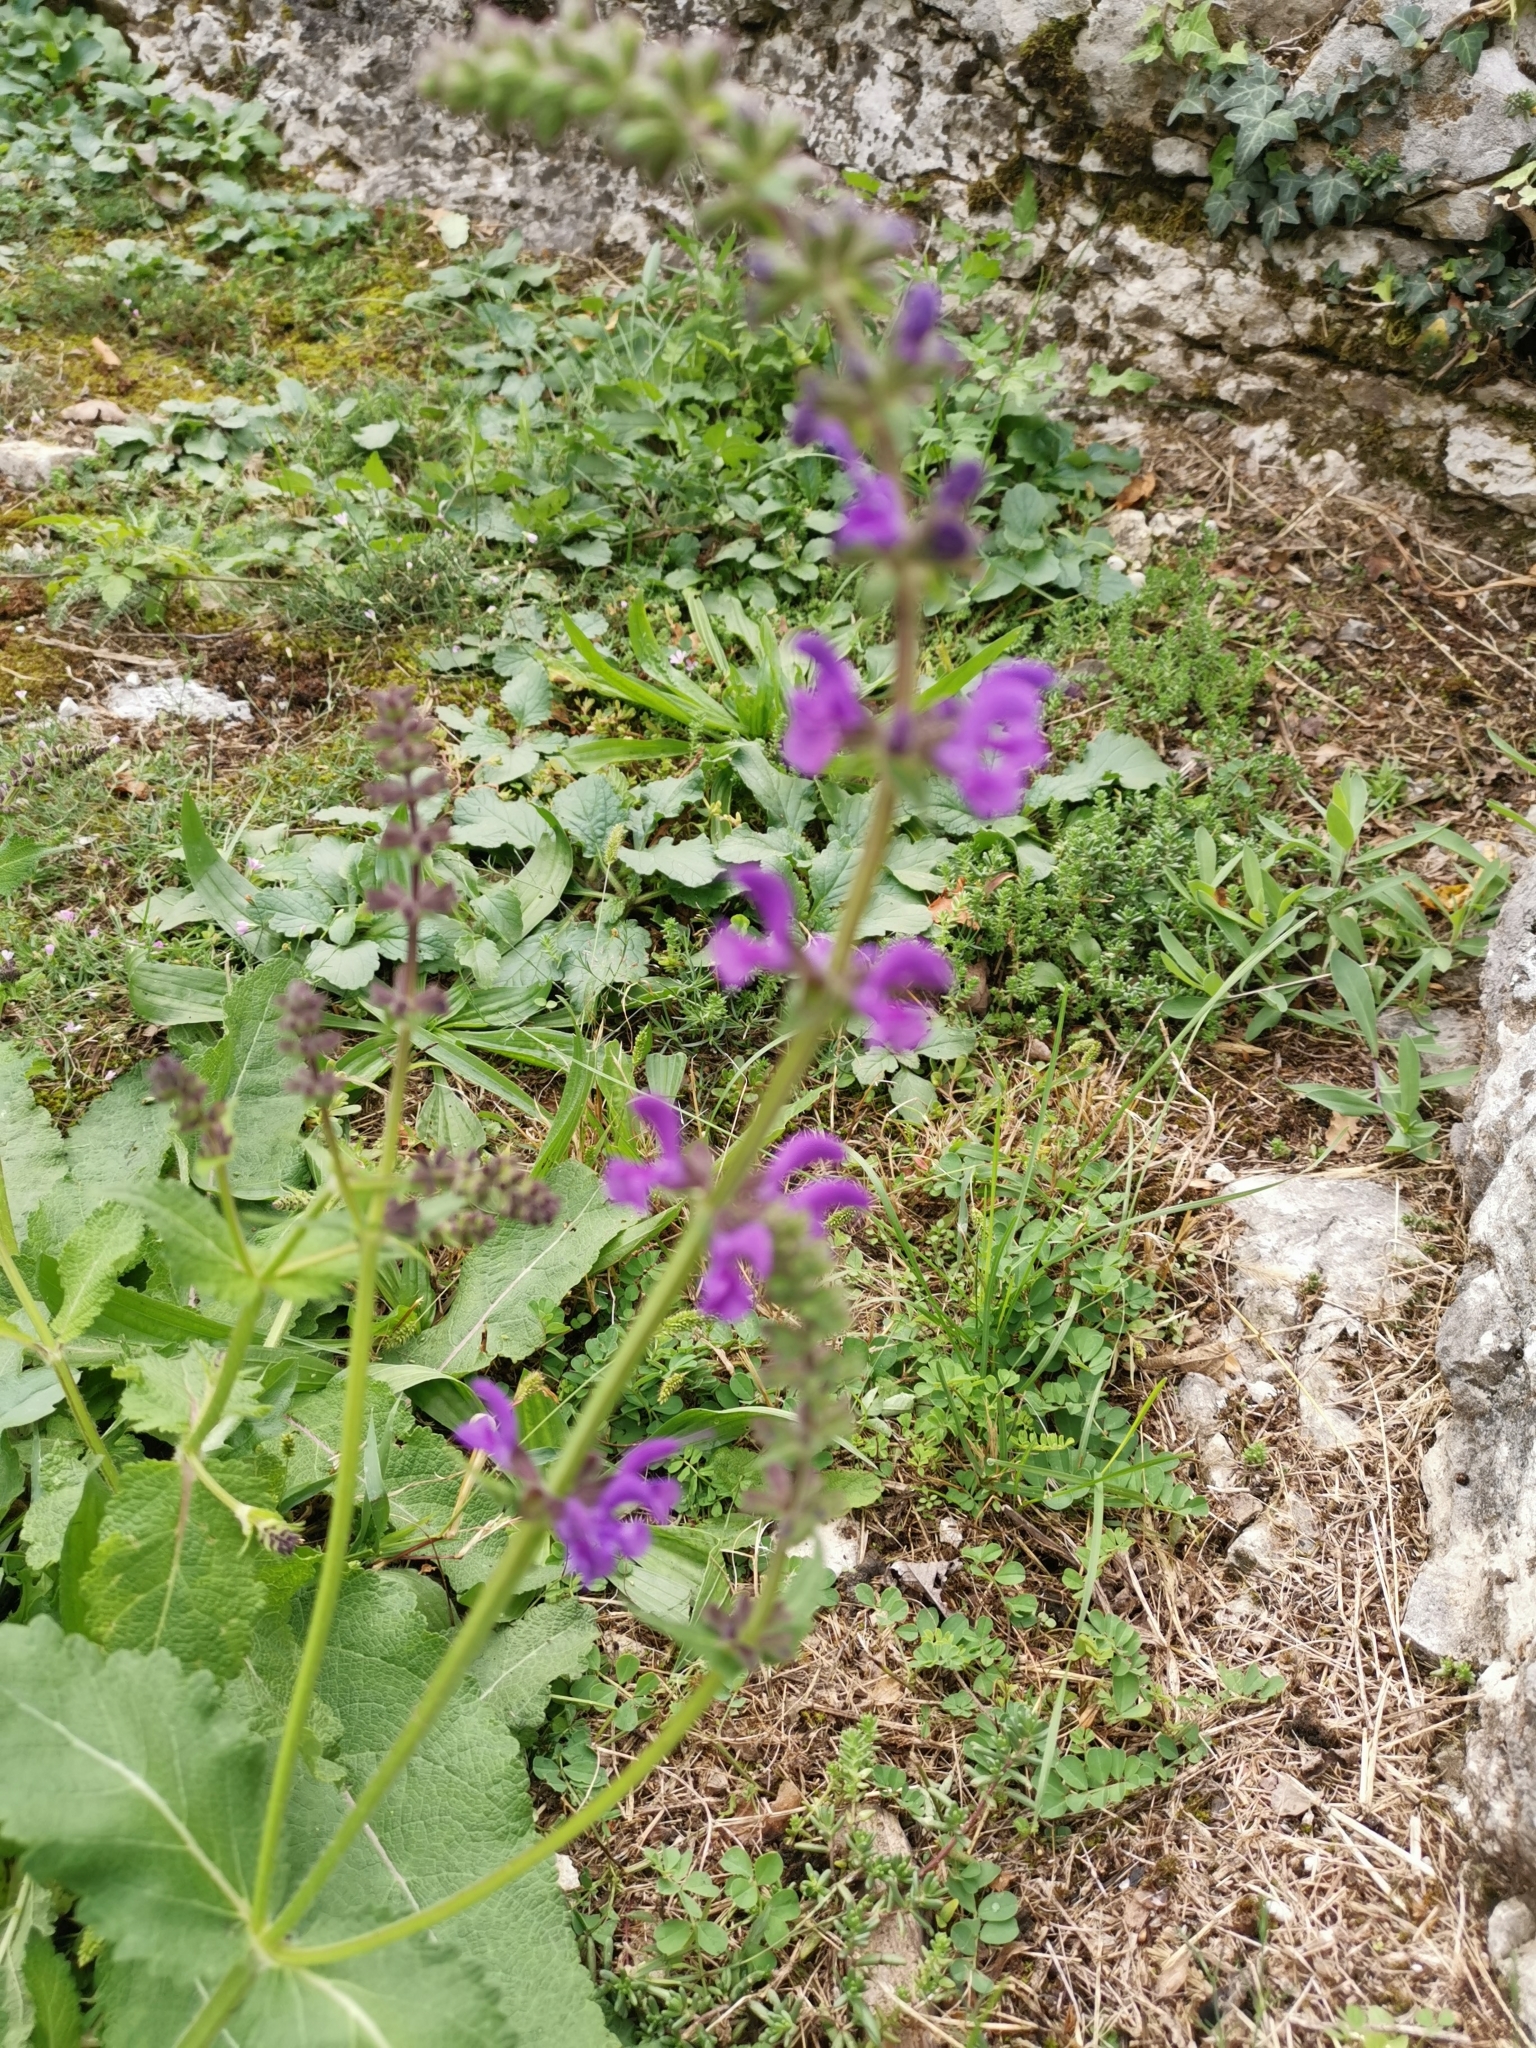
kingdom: Plantae
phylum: Tracheophyta
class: Magnoliopsida
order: Lamiales
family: Lamiaceae
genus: Salvia
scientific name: Salvia pratensis
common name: Meadow sage
